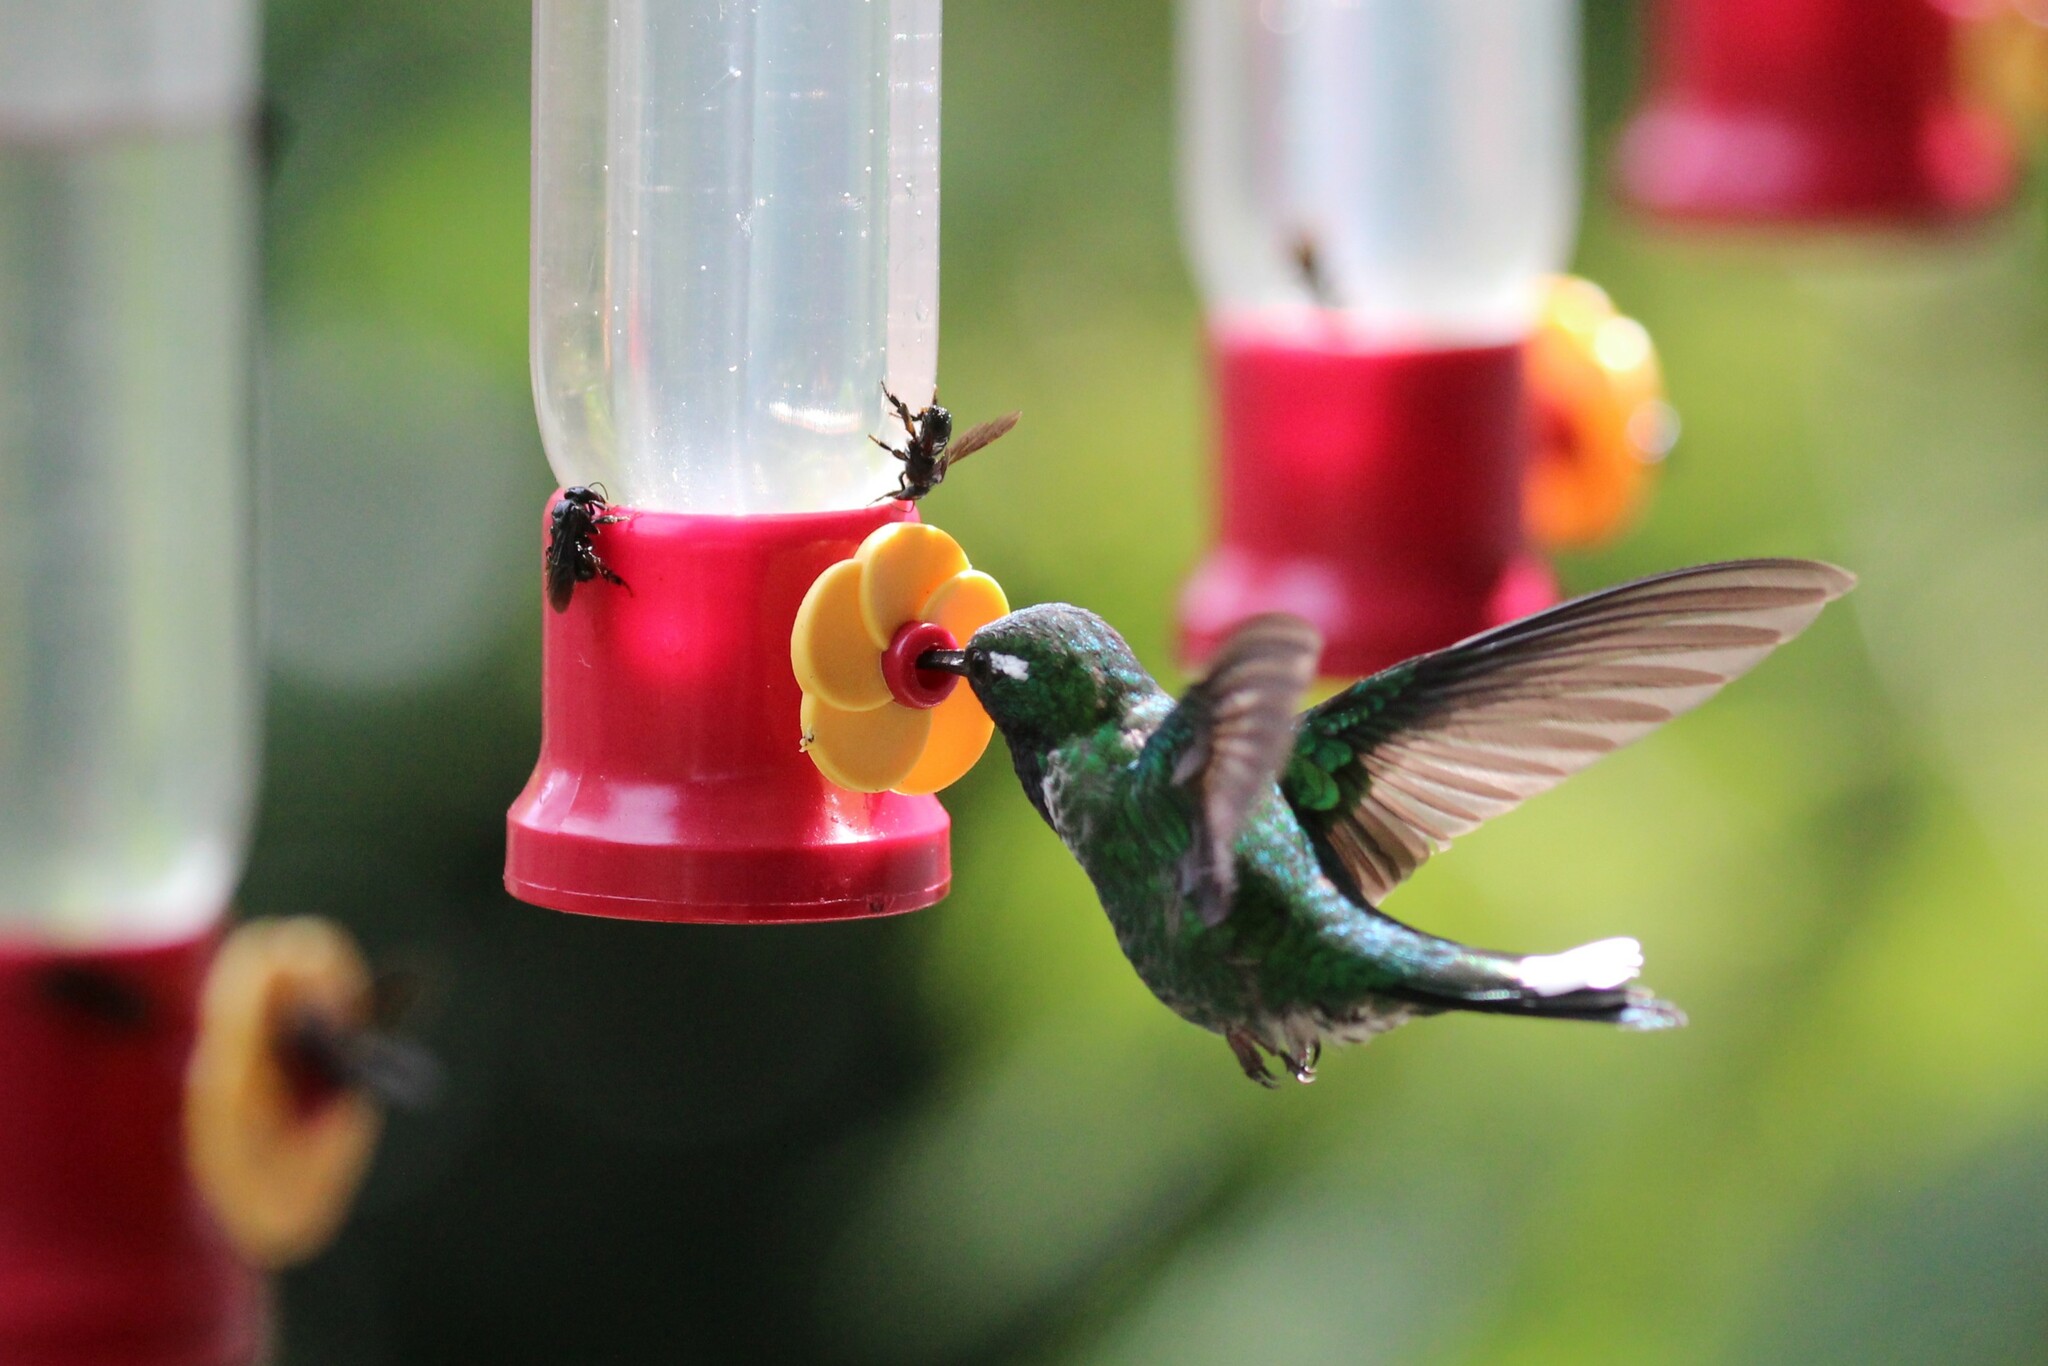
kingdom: Animalia
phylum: Chordata
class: Aves
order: Apodiformes
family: Trochilidae
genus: Urosticte
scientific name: Urosticte benjamini
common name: Purple-bibbed whitetip
